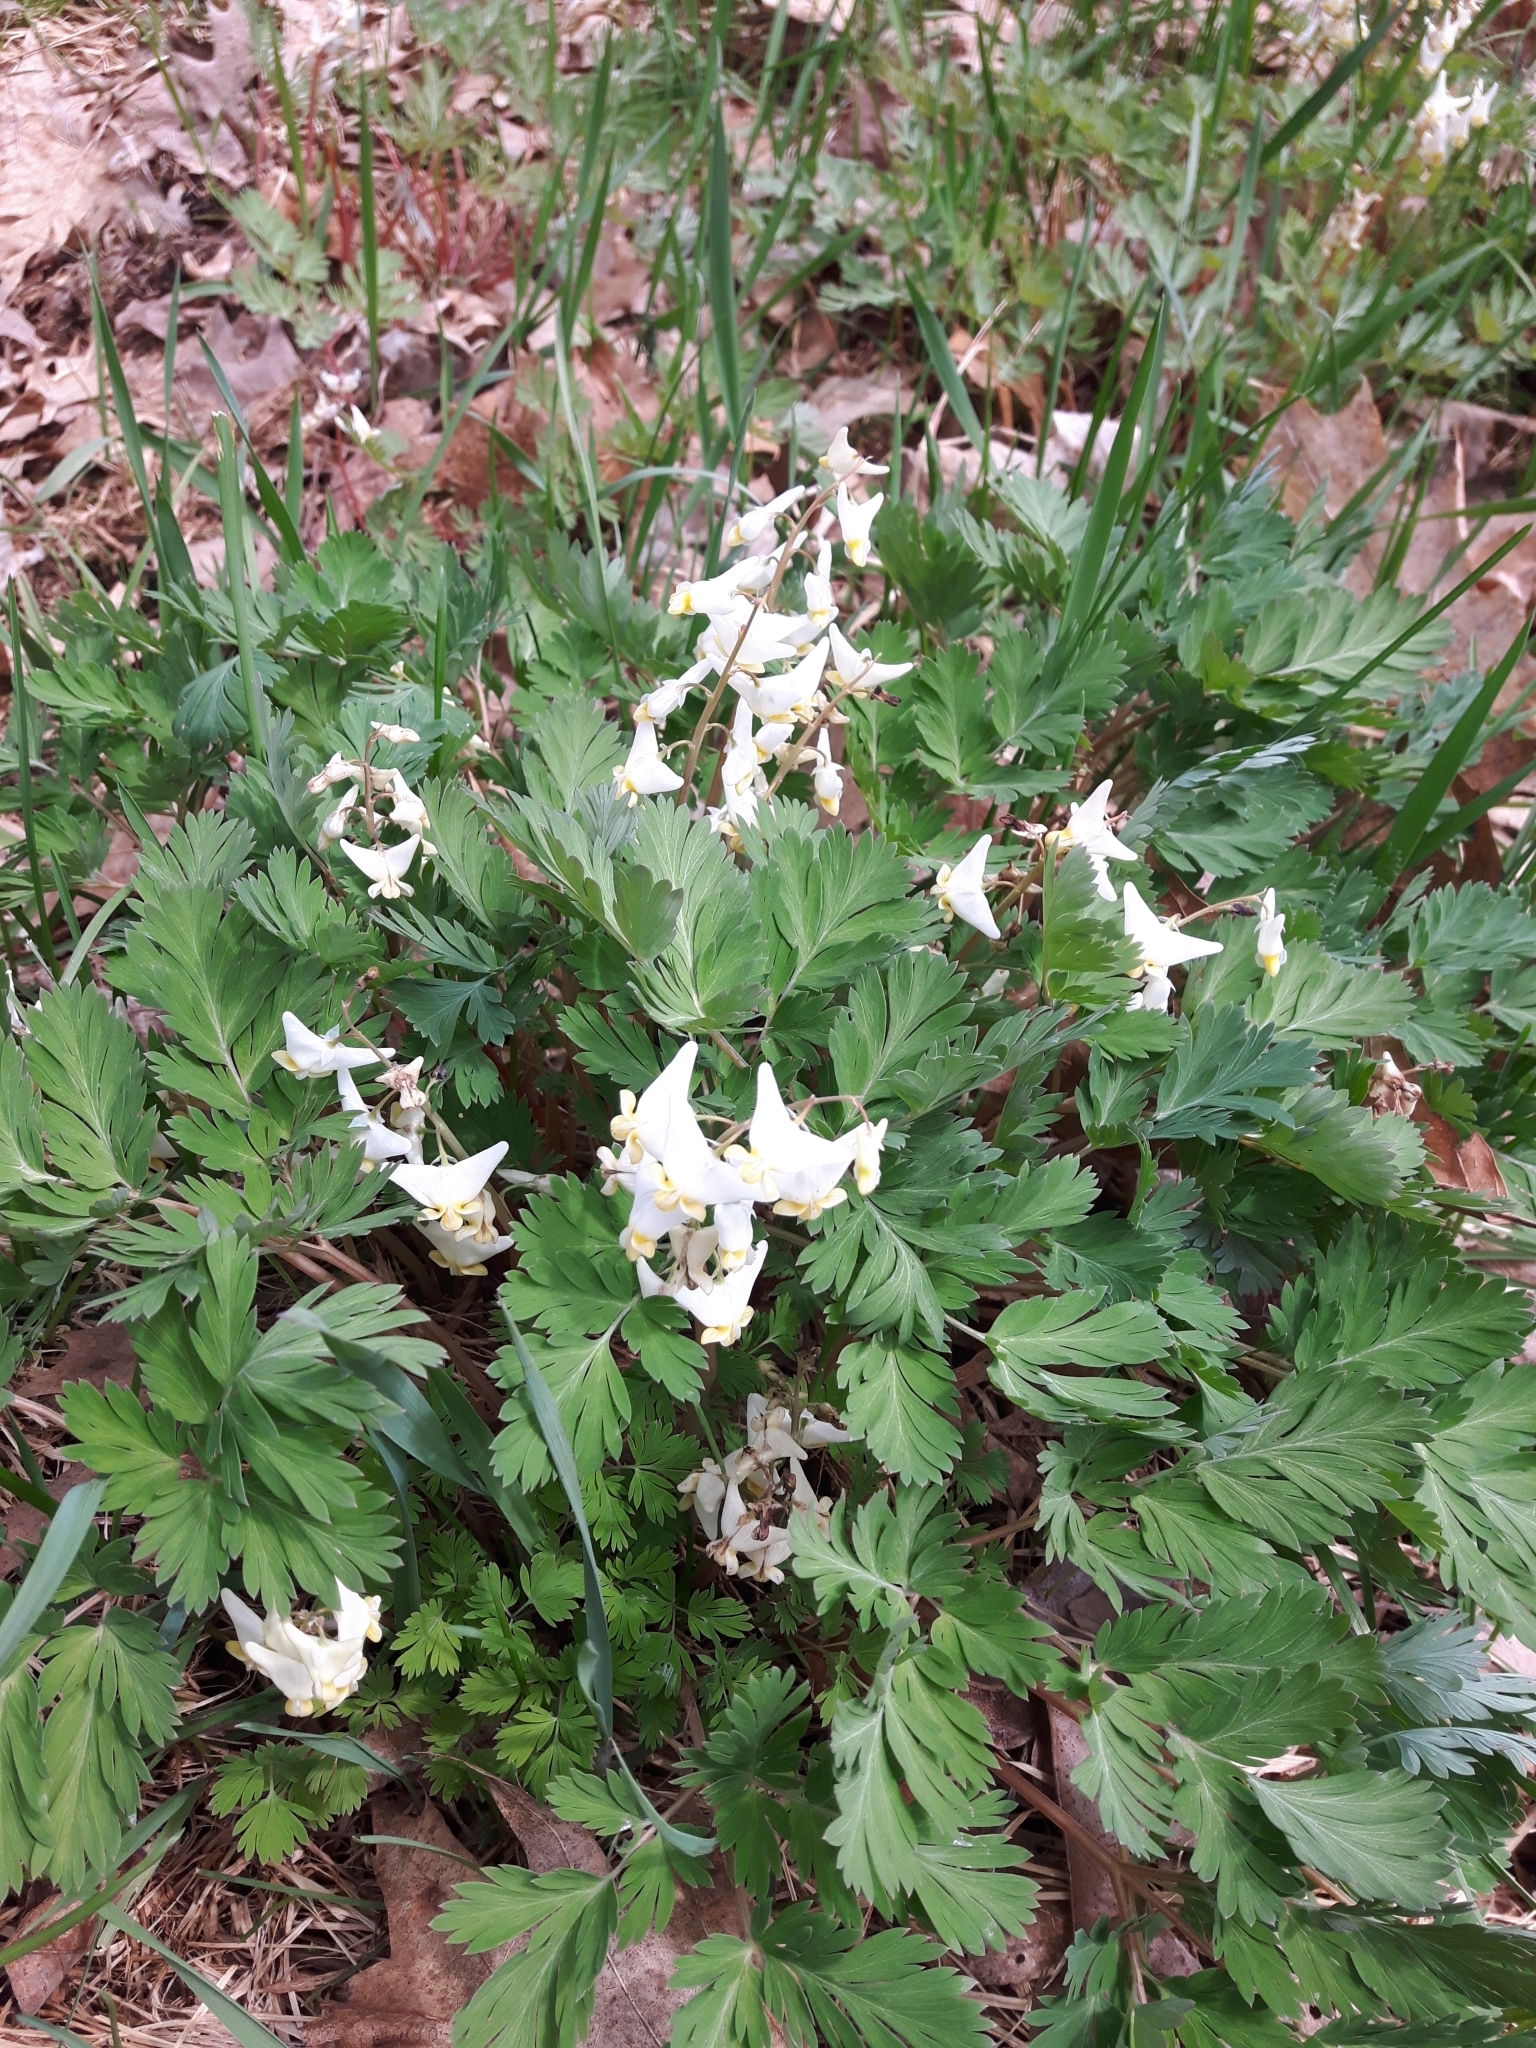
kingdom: Plantae
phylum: Tracheophyta
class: Magnoliopsida
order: Ranunculales
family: Papaveraceae
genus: Dicentra
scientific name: Dicentra cucullaria
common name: Dutchman's breeches
